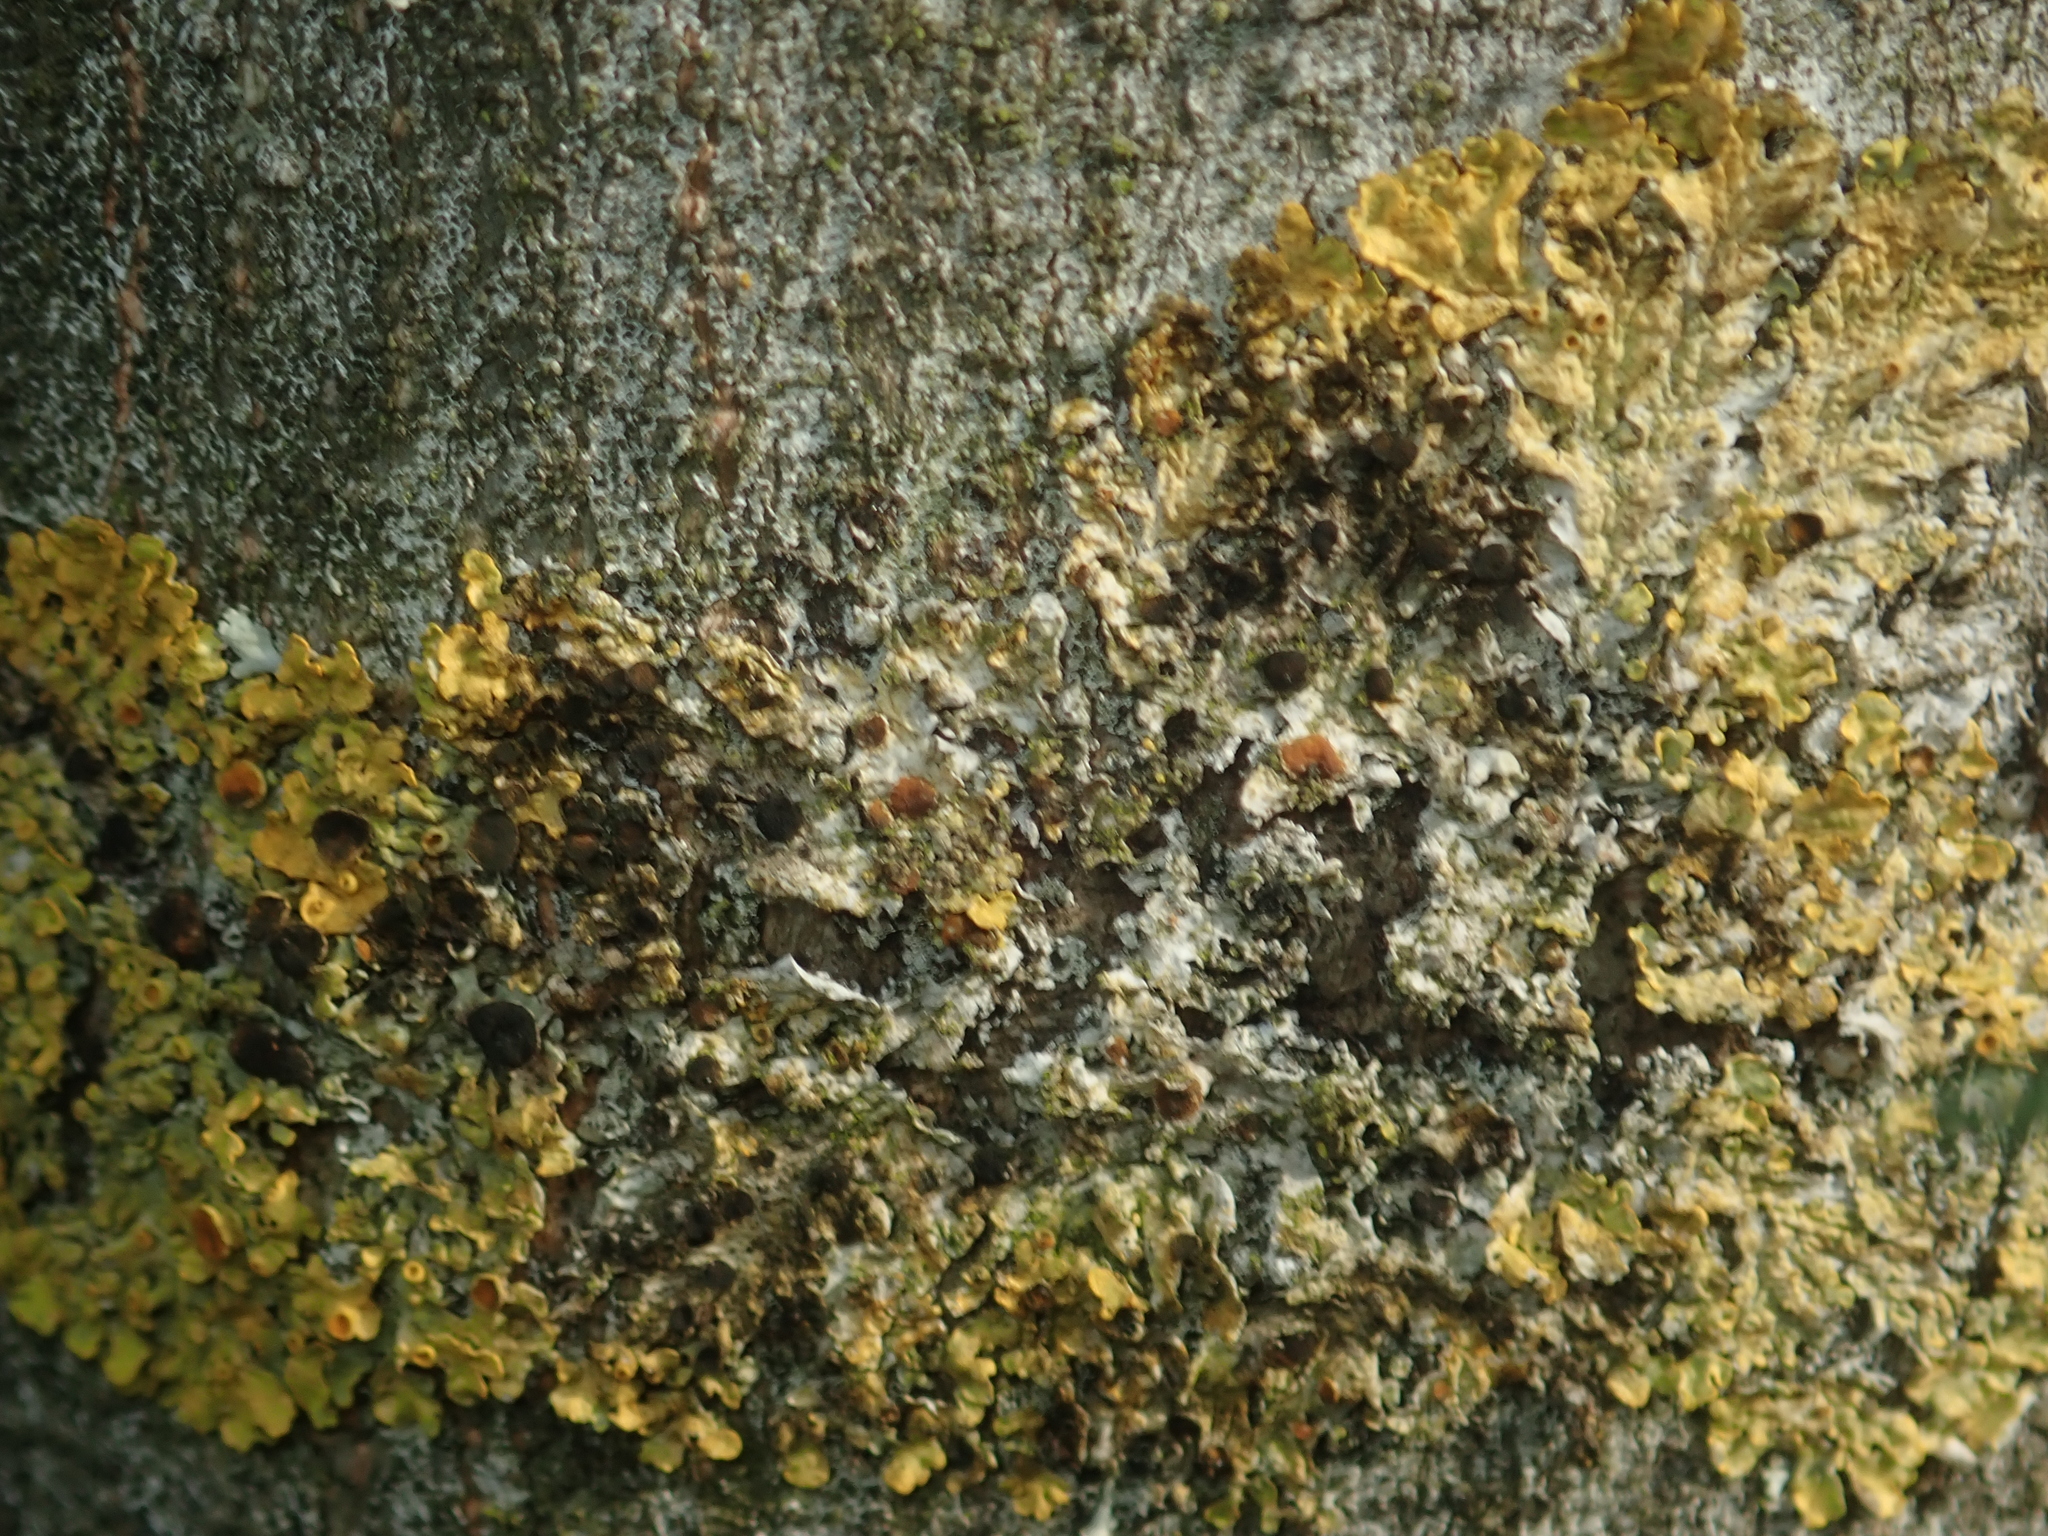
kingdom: Fungi
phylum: Ascomycota
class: Dothideomycetes
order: Mycosphaerellales
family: Teratosphaeriaceae
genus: Xanthoriicola
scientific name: Xanthoriicola physciae
